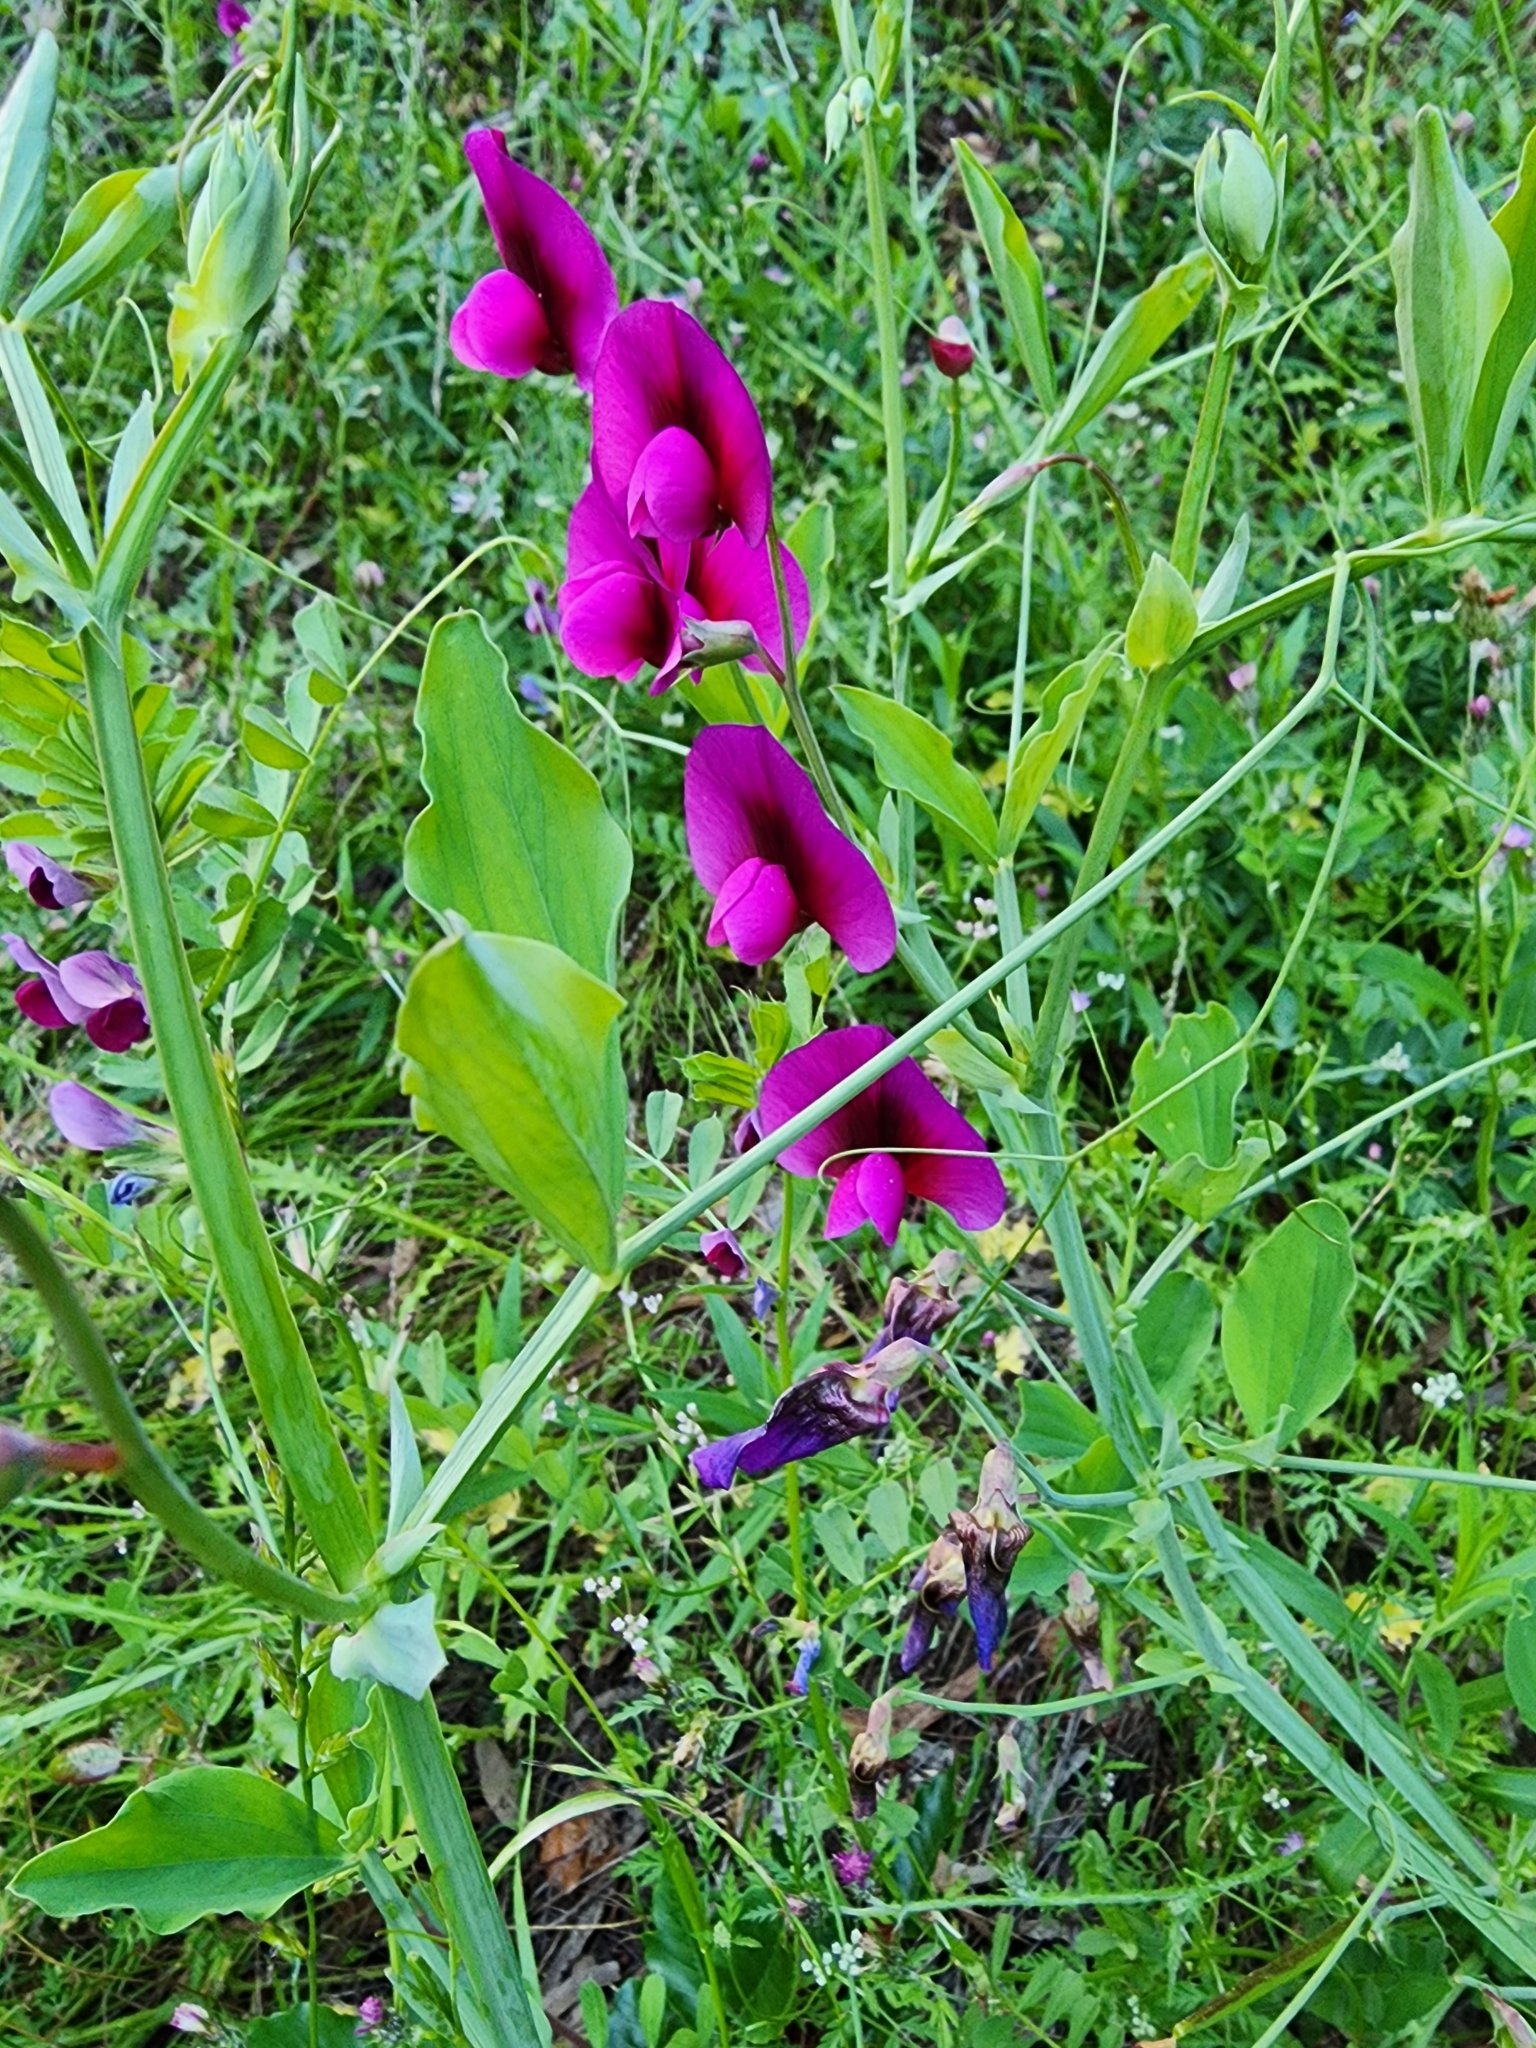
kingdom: Plantae
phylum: Tracheophyta
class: Magnoliopsida
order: Fabales
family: Fabaceae
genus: Lathyrus
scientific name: Lathyrus tingitanus
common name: Tangier pea
